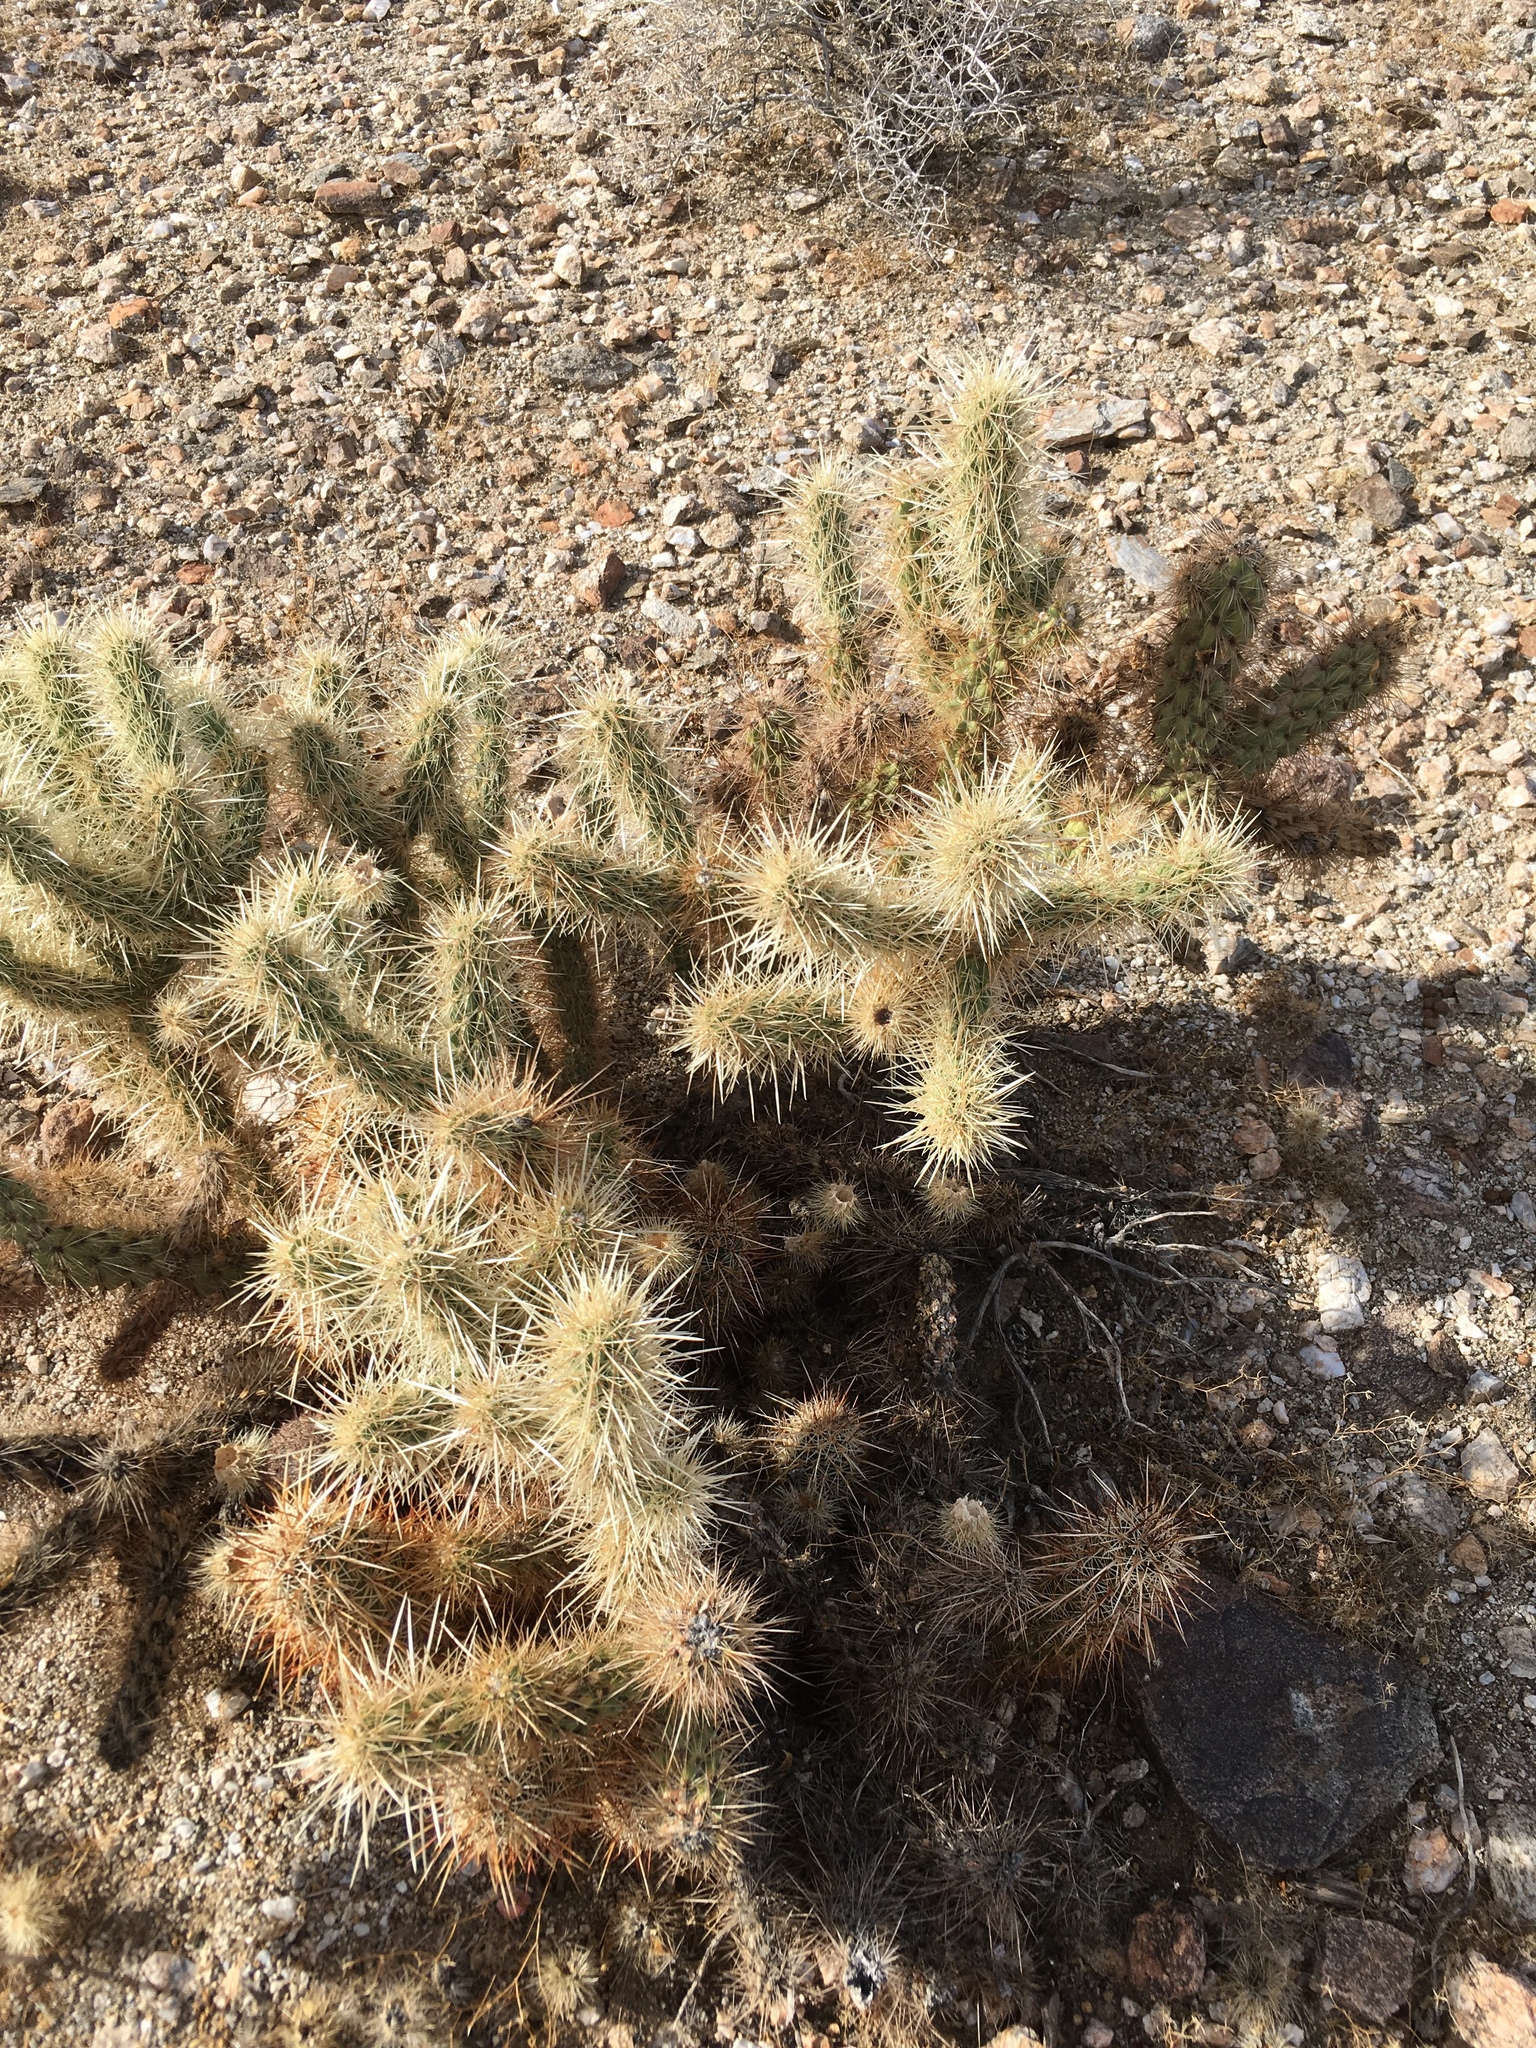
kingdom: Plantae
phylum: Tracheophyta
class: Magnoliopsida
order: Caryophyllales
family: Cactaceae
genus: Cylindropuntia
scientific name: Cylindropuntia ganderi
